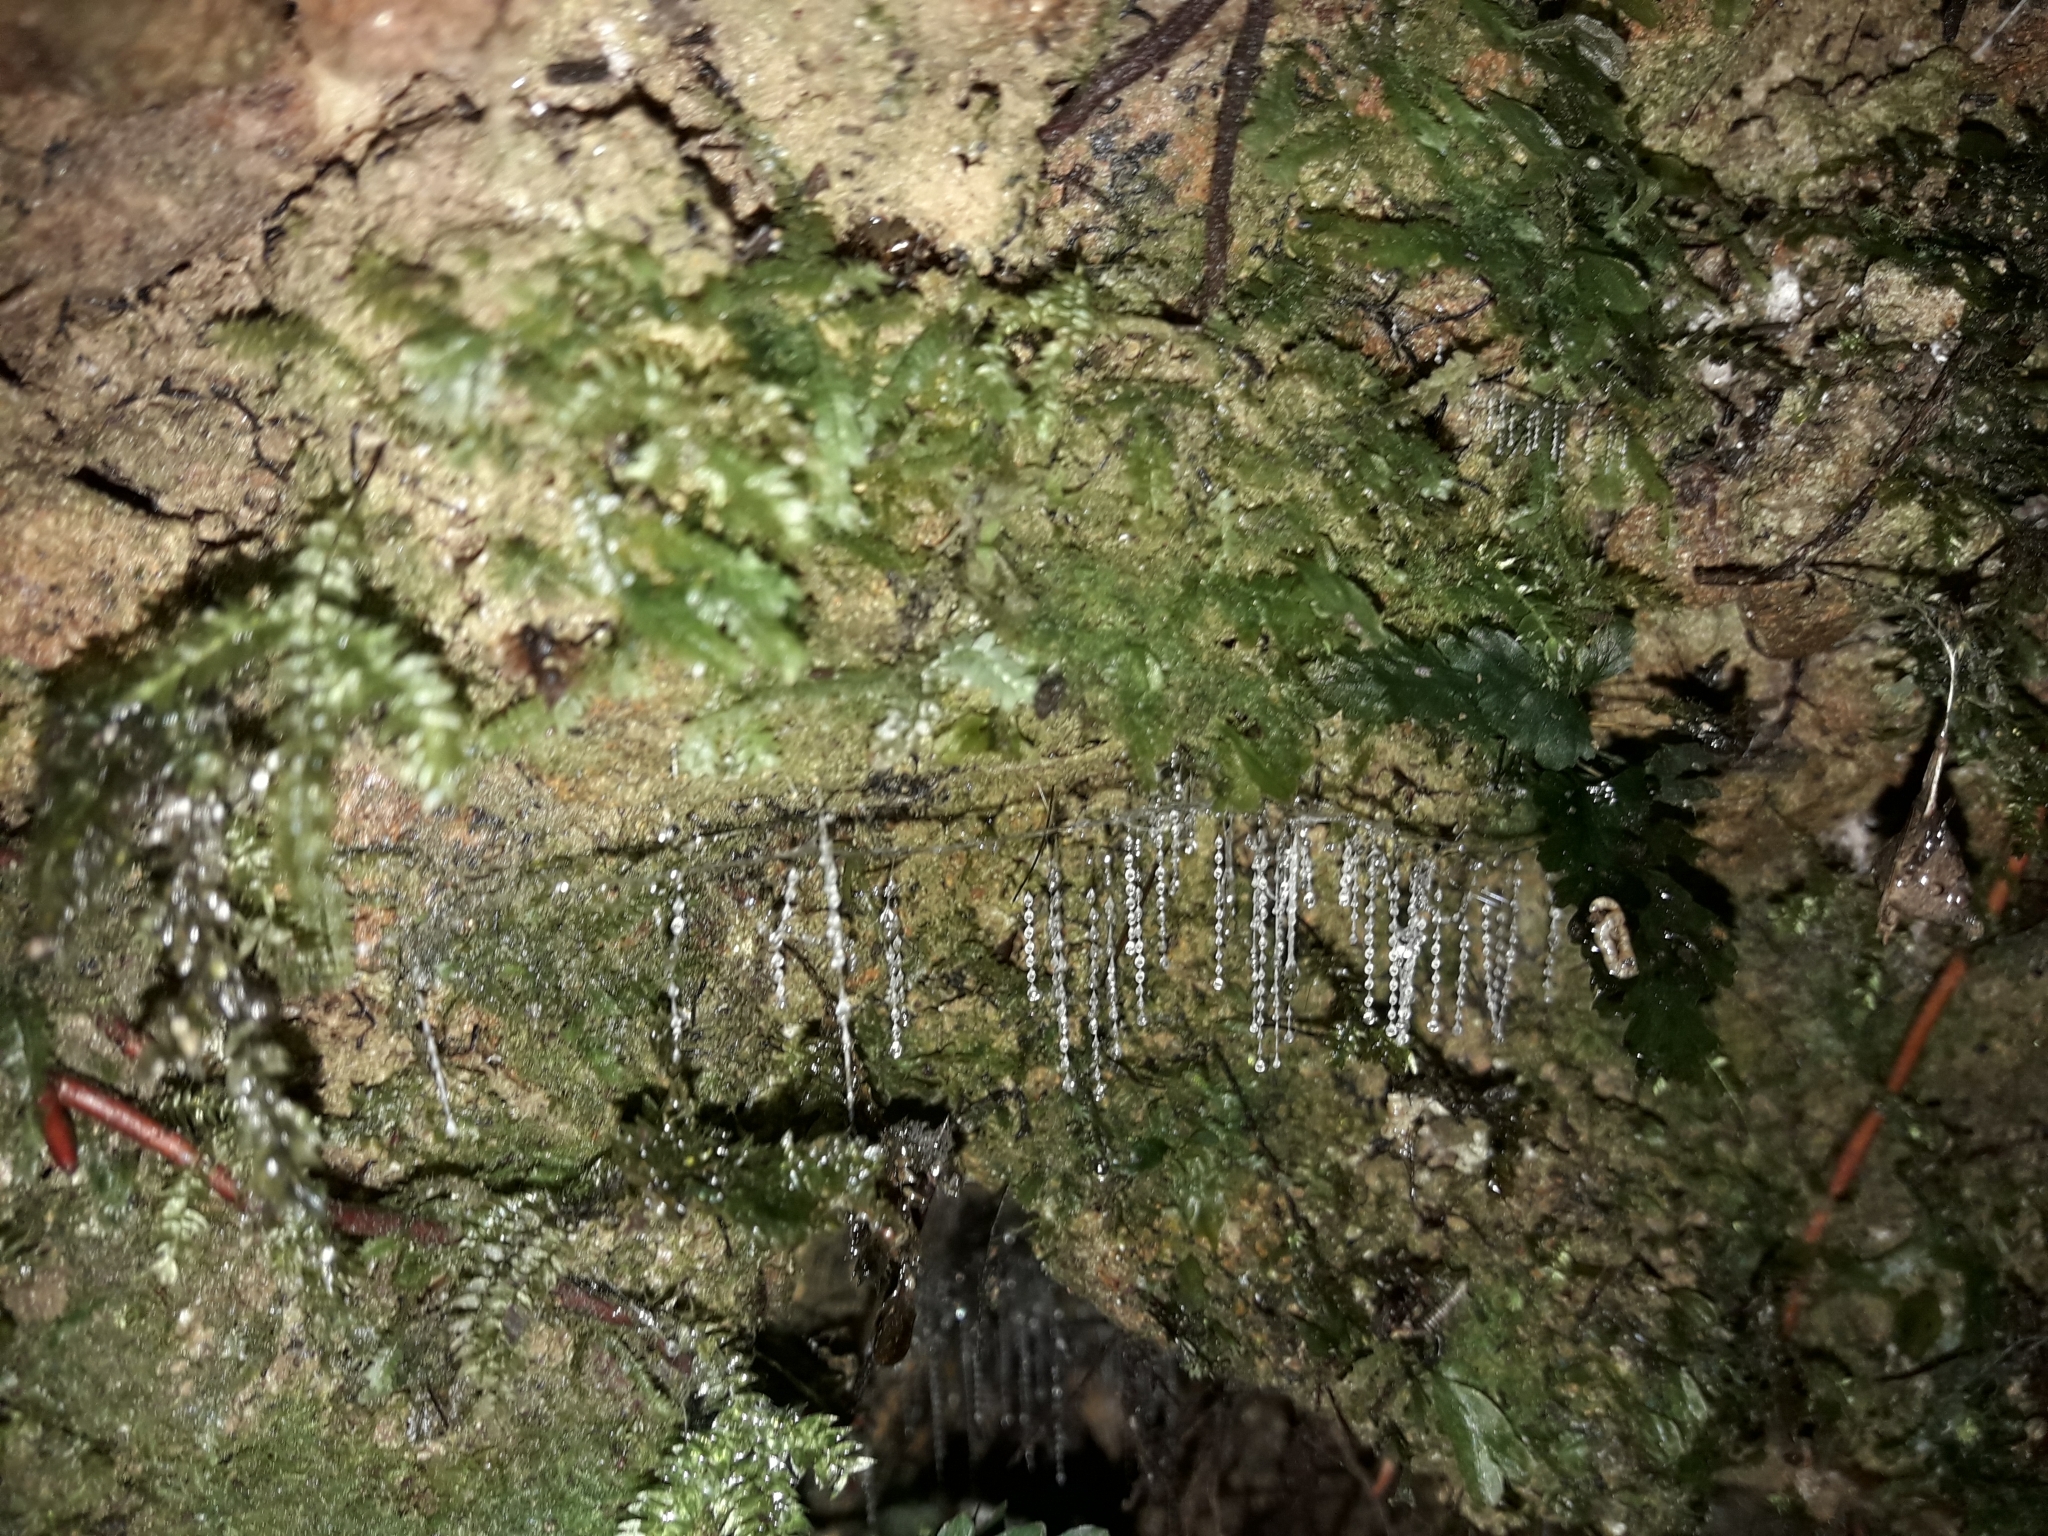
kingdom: Animalia
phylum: Arthropoda
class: Insecta
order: Diptera
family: Keroplatidae
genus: Arachnocampa
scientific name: Arachnocampa luminosa
